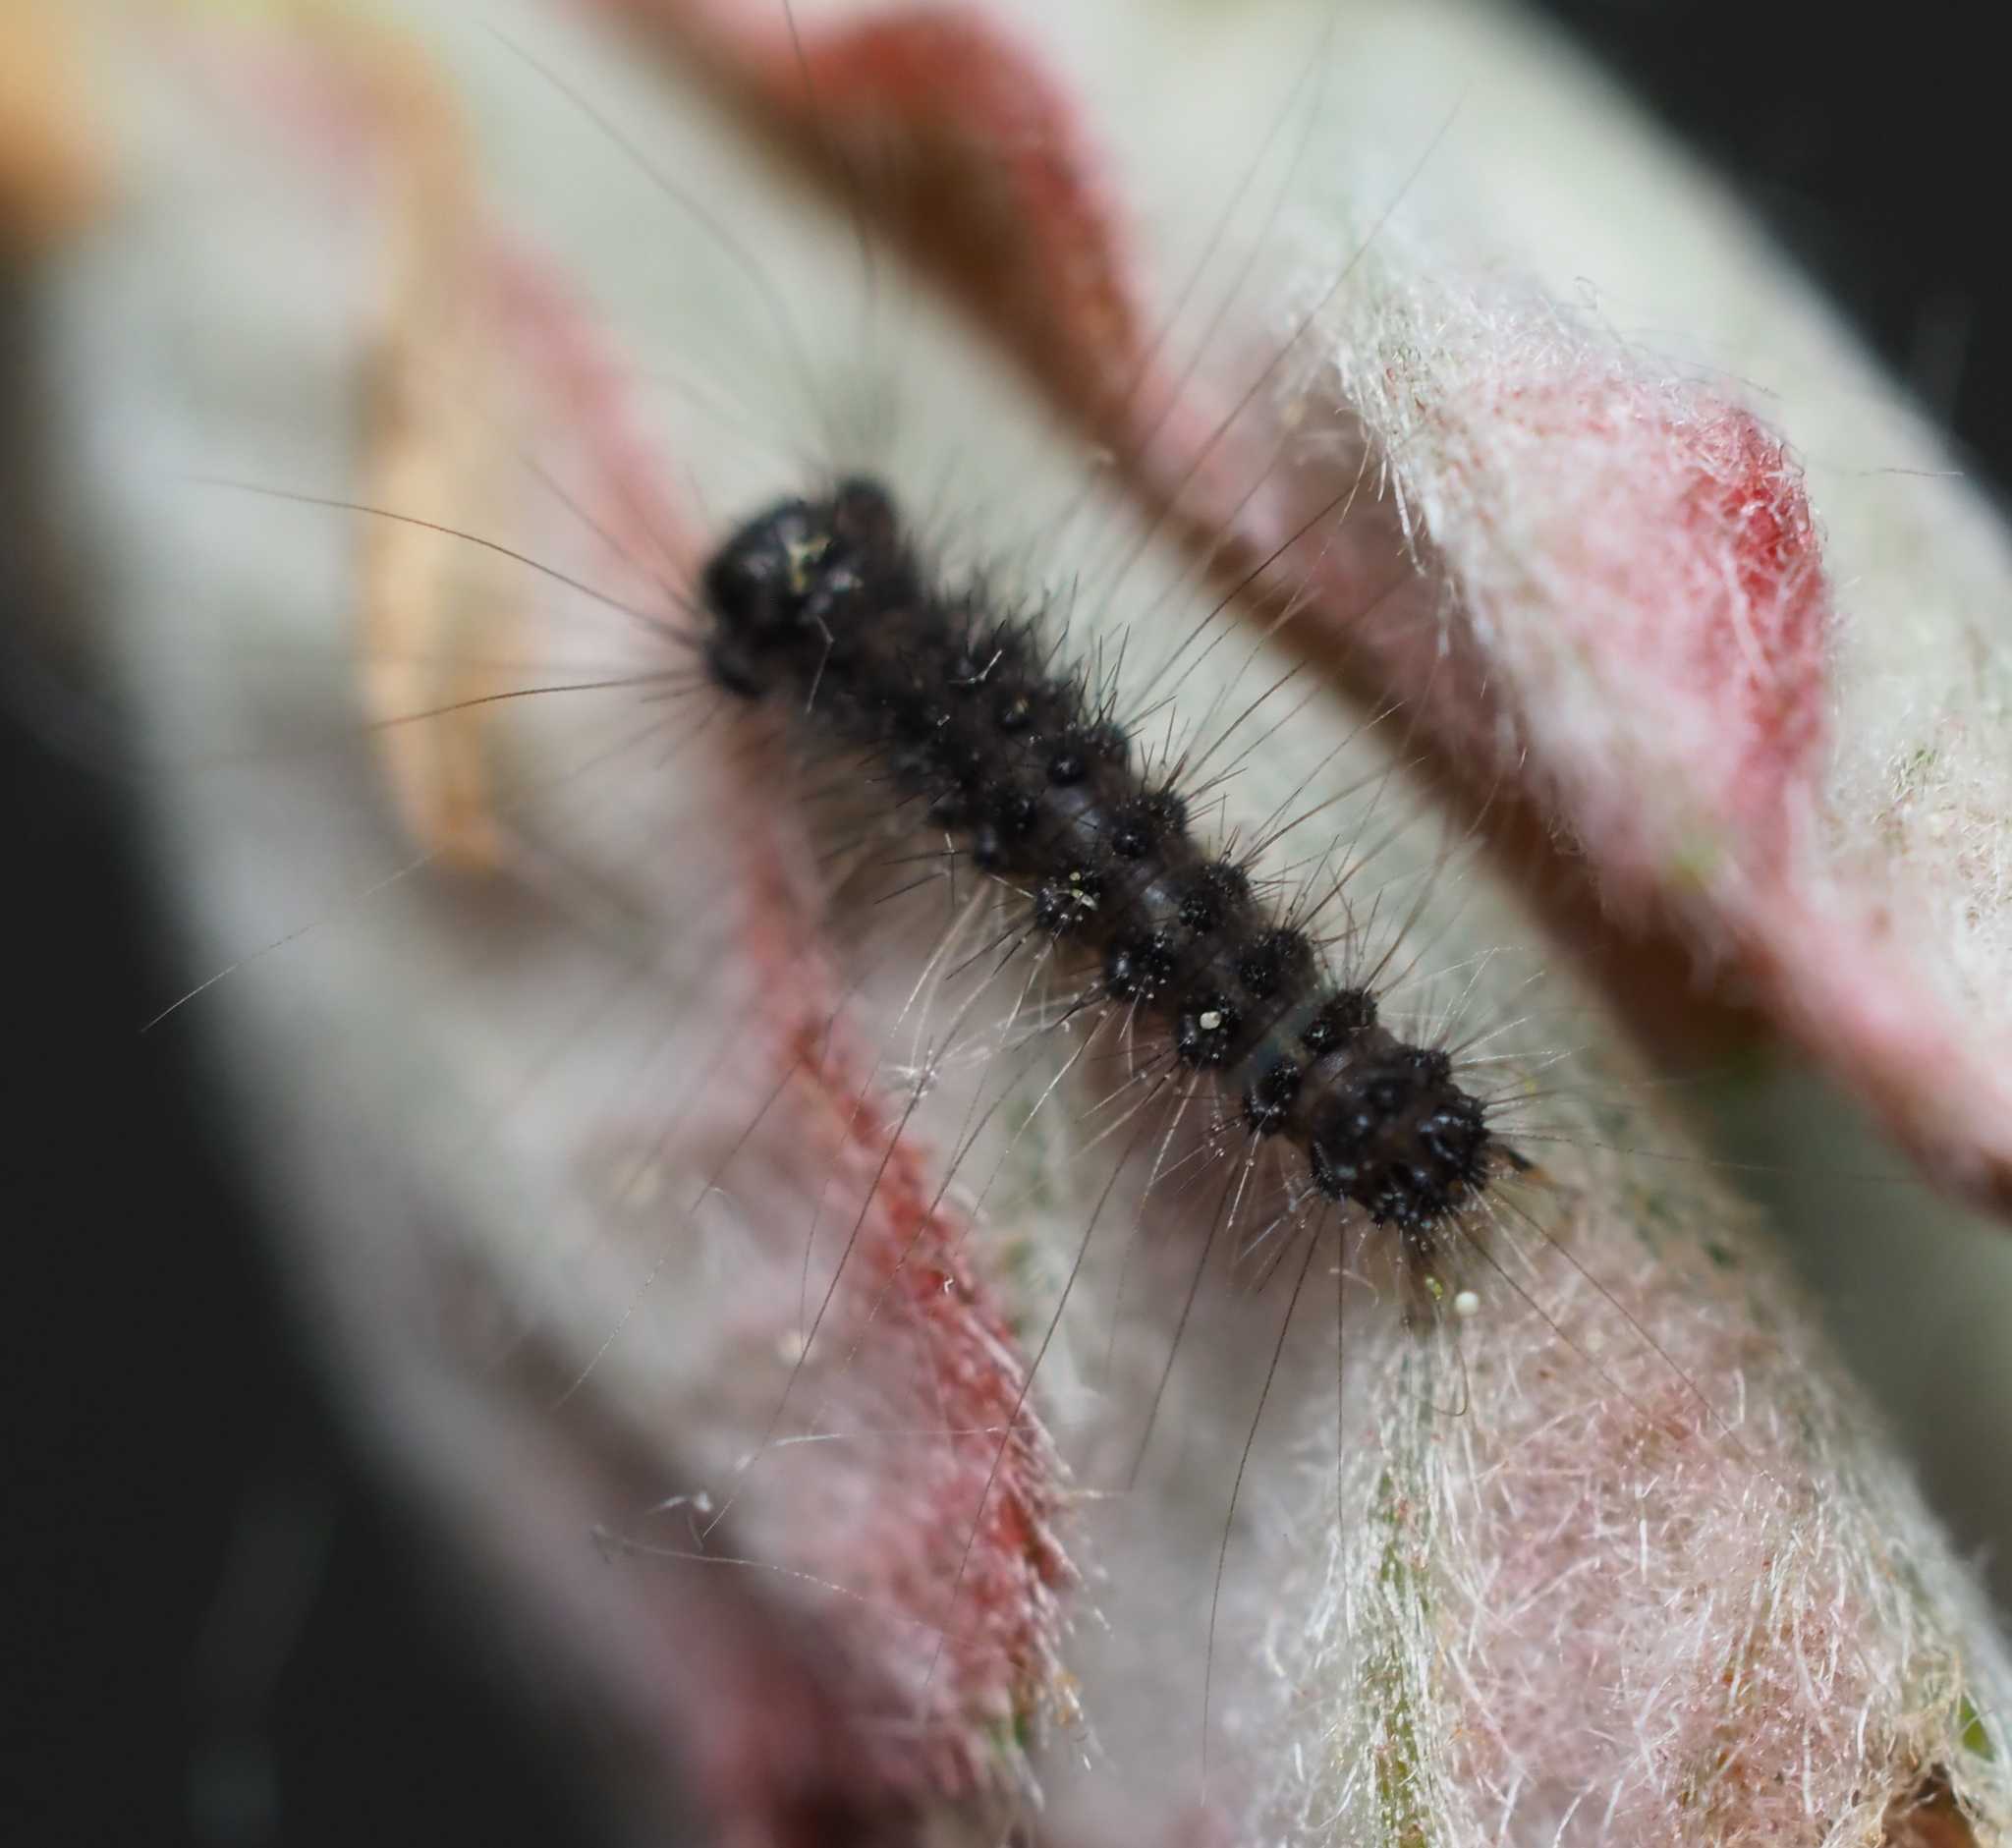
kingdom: Animalia
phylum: Arthropoda
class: Insecta
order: Lepidoptera
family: Erebidae
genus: Lymantria
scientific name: Lymantria dispar
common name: Gypsy moth
